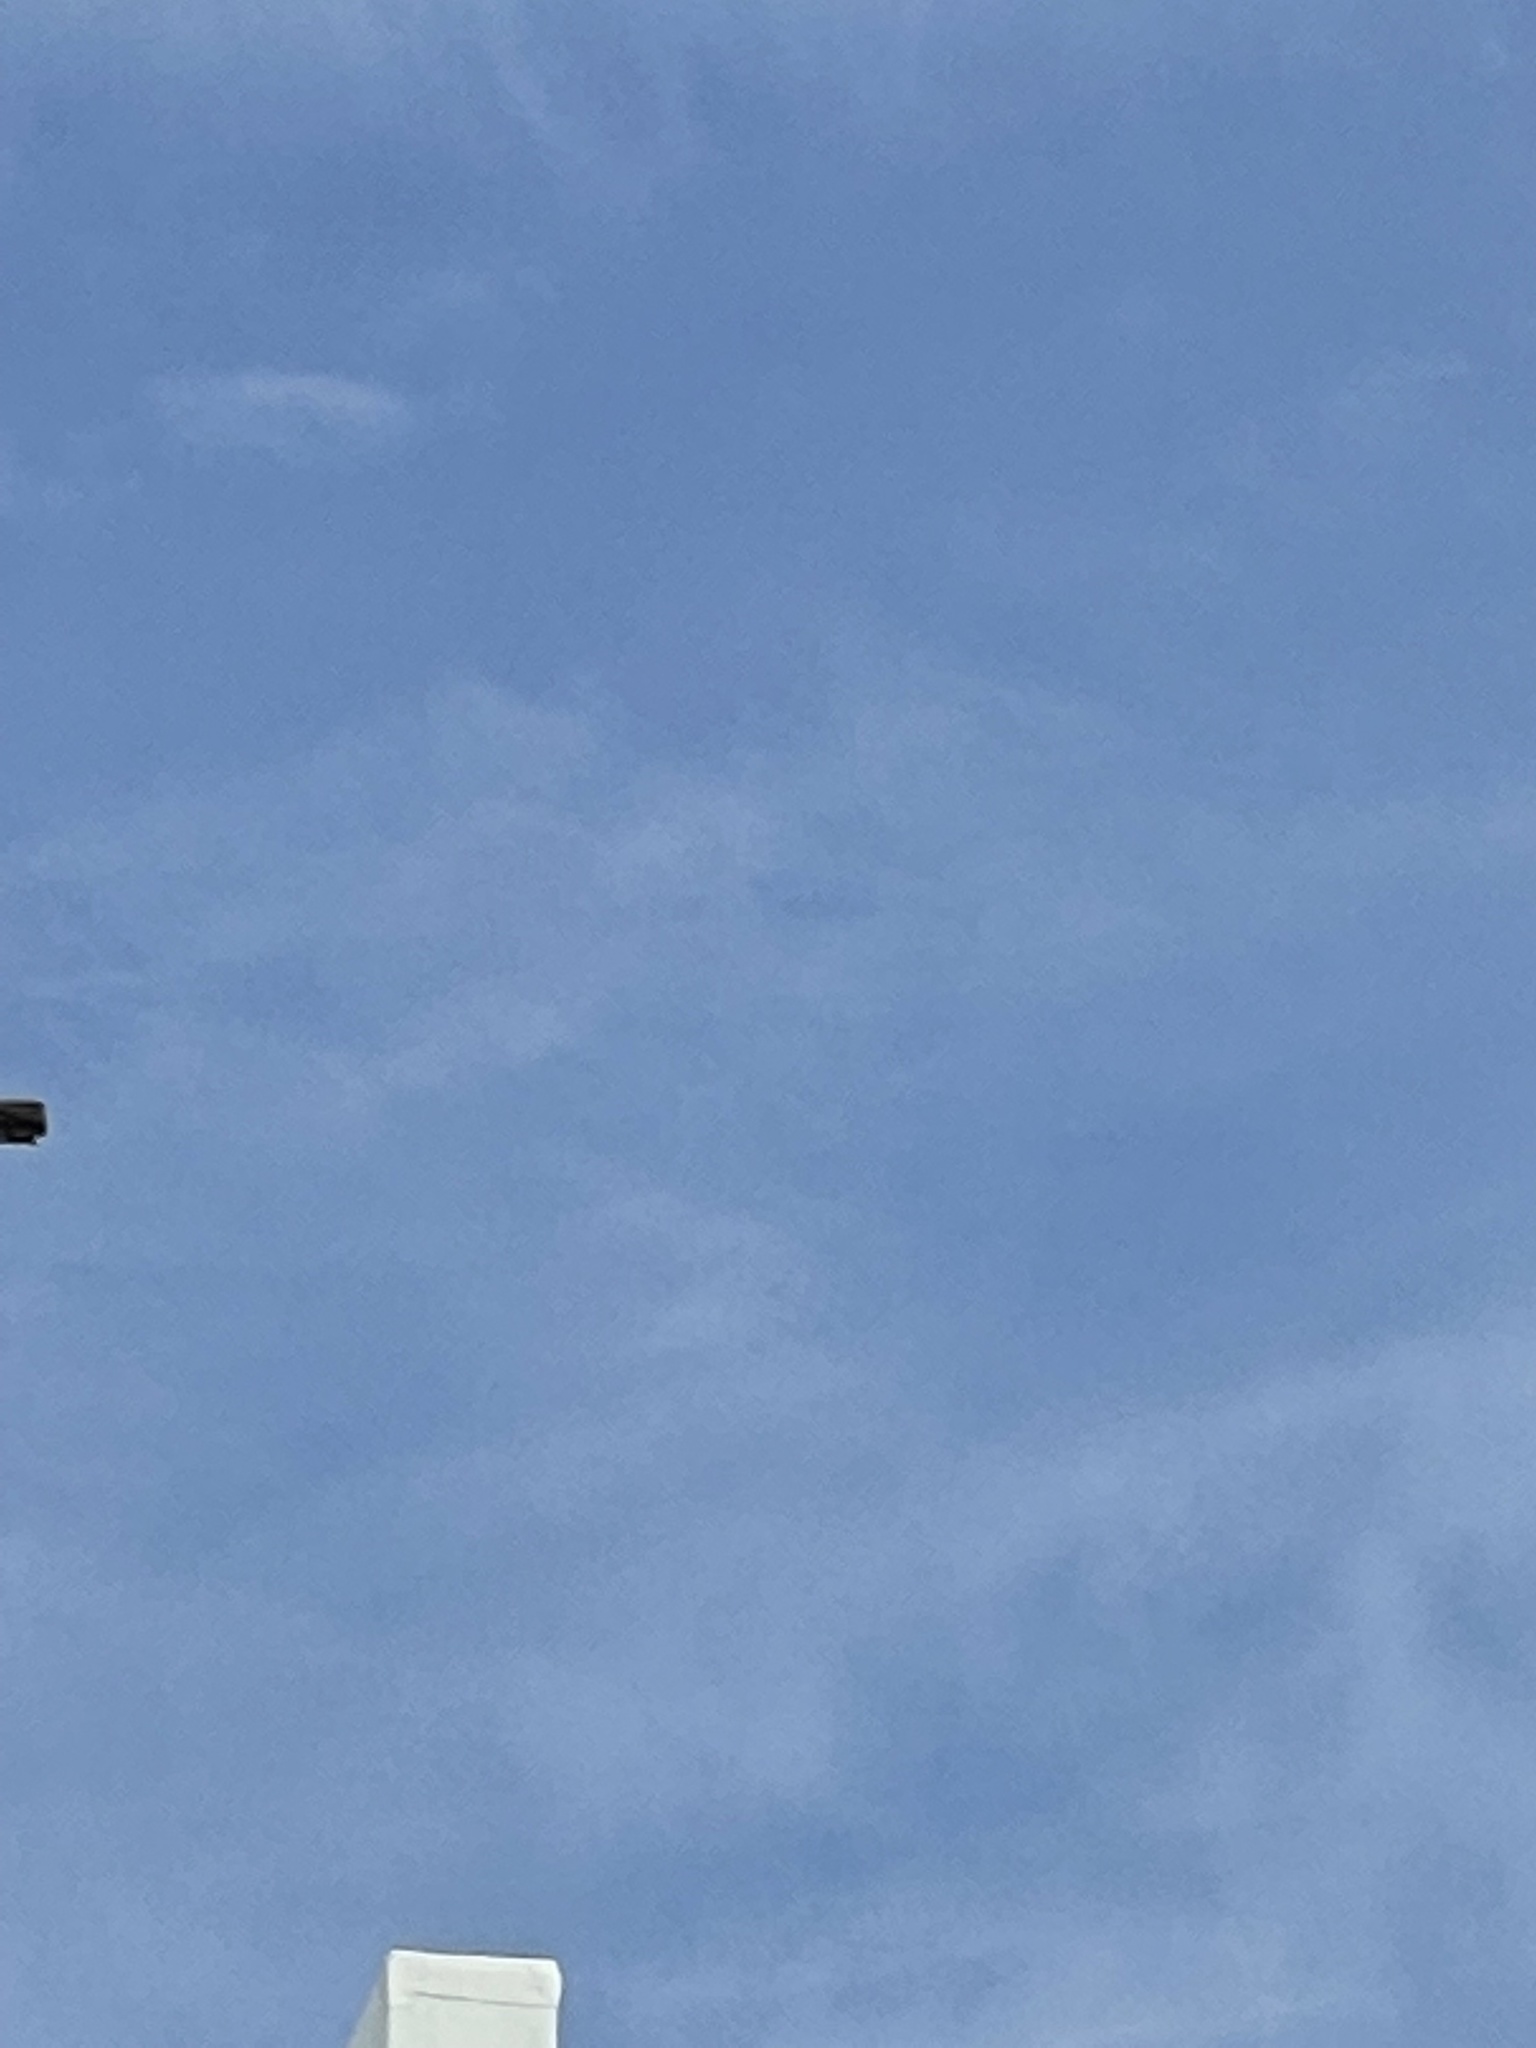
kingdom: Animalia
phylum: Chordata
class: Aves
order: Pelecaniformes
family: Pelecanidae
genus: Pelecanus
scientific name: Pelecanus occidentalis
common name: Brown pelican
